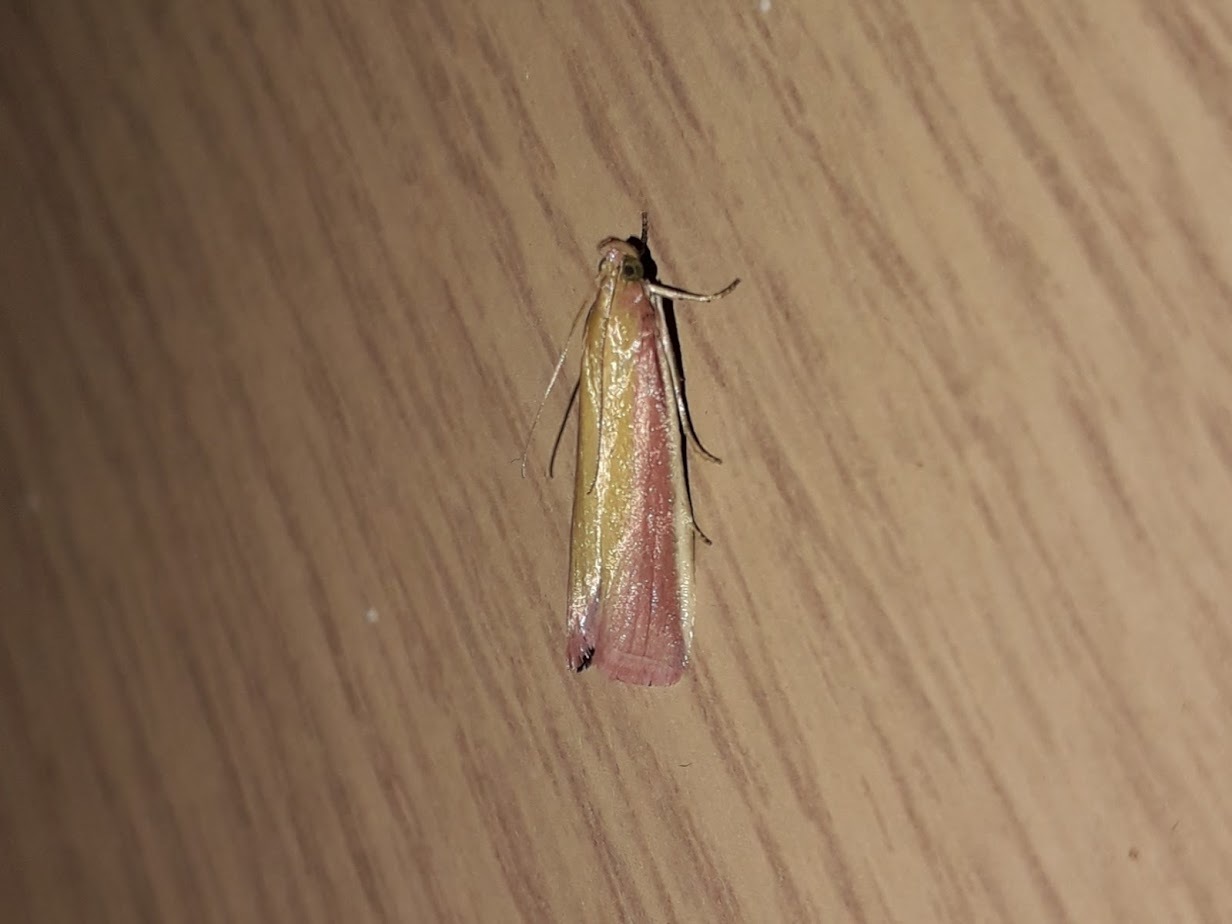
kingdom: Animalia
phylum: Arthropoda
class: Insecta
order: Lepidoptera
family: Pyralidae
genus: Oncocera
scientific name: Oncocera semirubella
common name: Rosy-striped knot-horn
